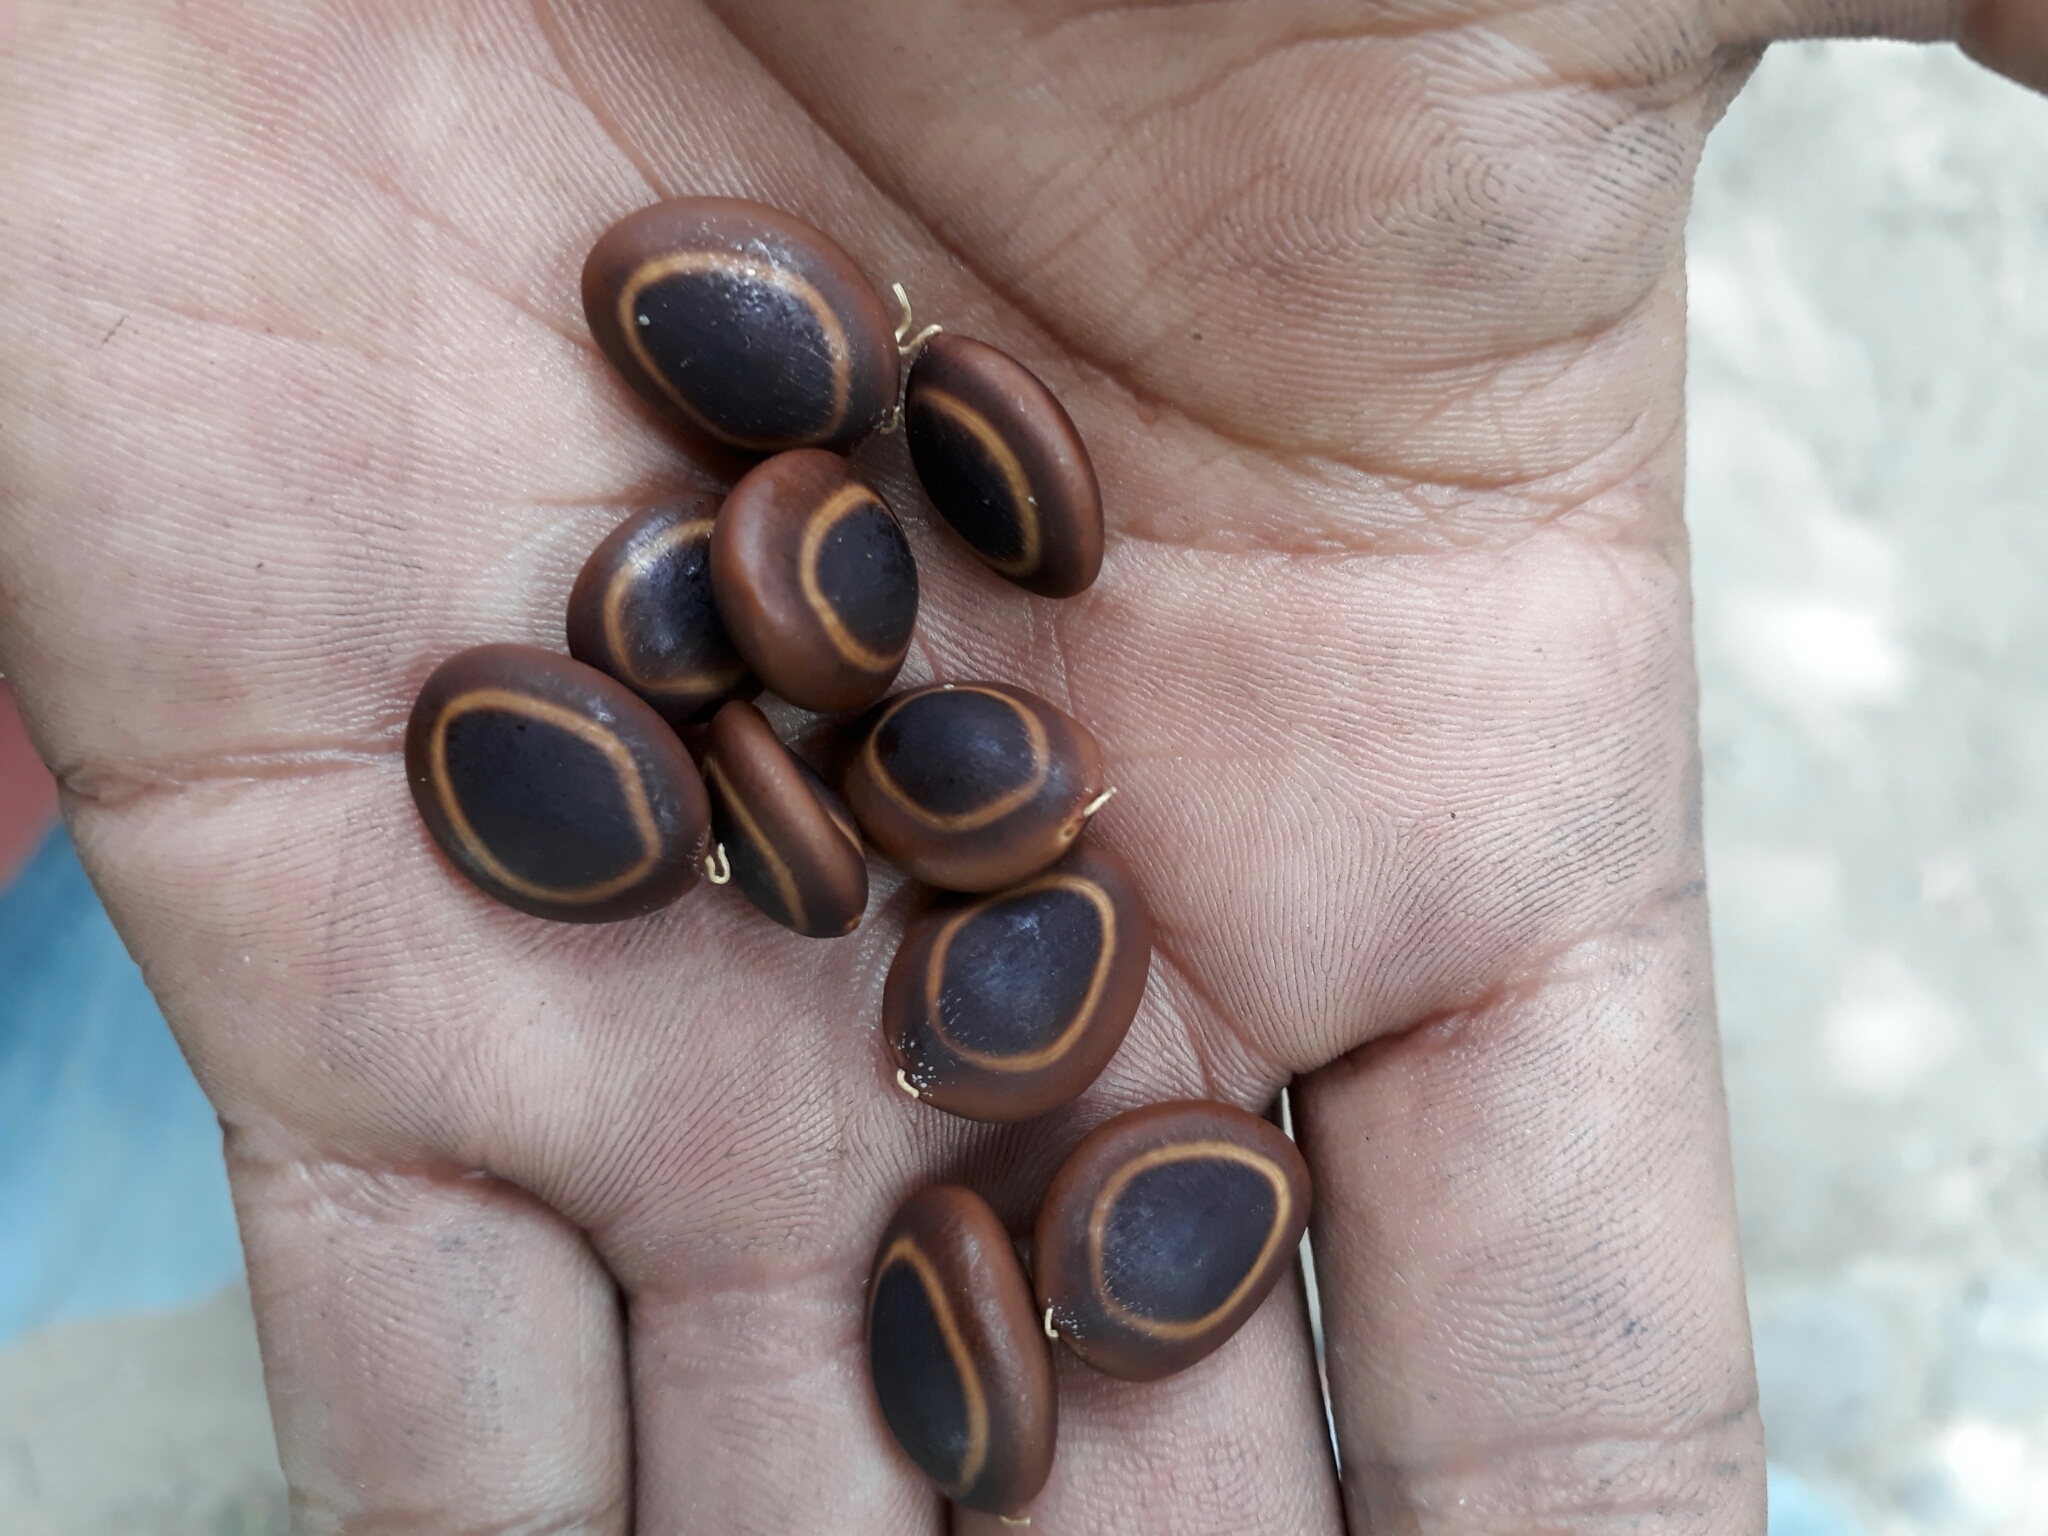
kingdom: Plantae
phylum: Tracheophyta
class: Magnoliopsida
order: Fabales
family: Fabaceae
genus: Enterolobium
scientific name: Enterolobium cyclocarpum
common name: Ear tree
